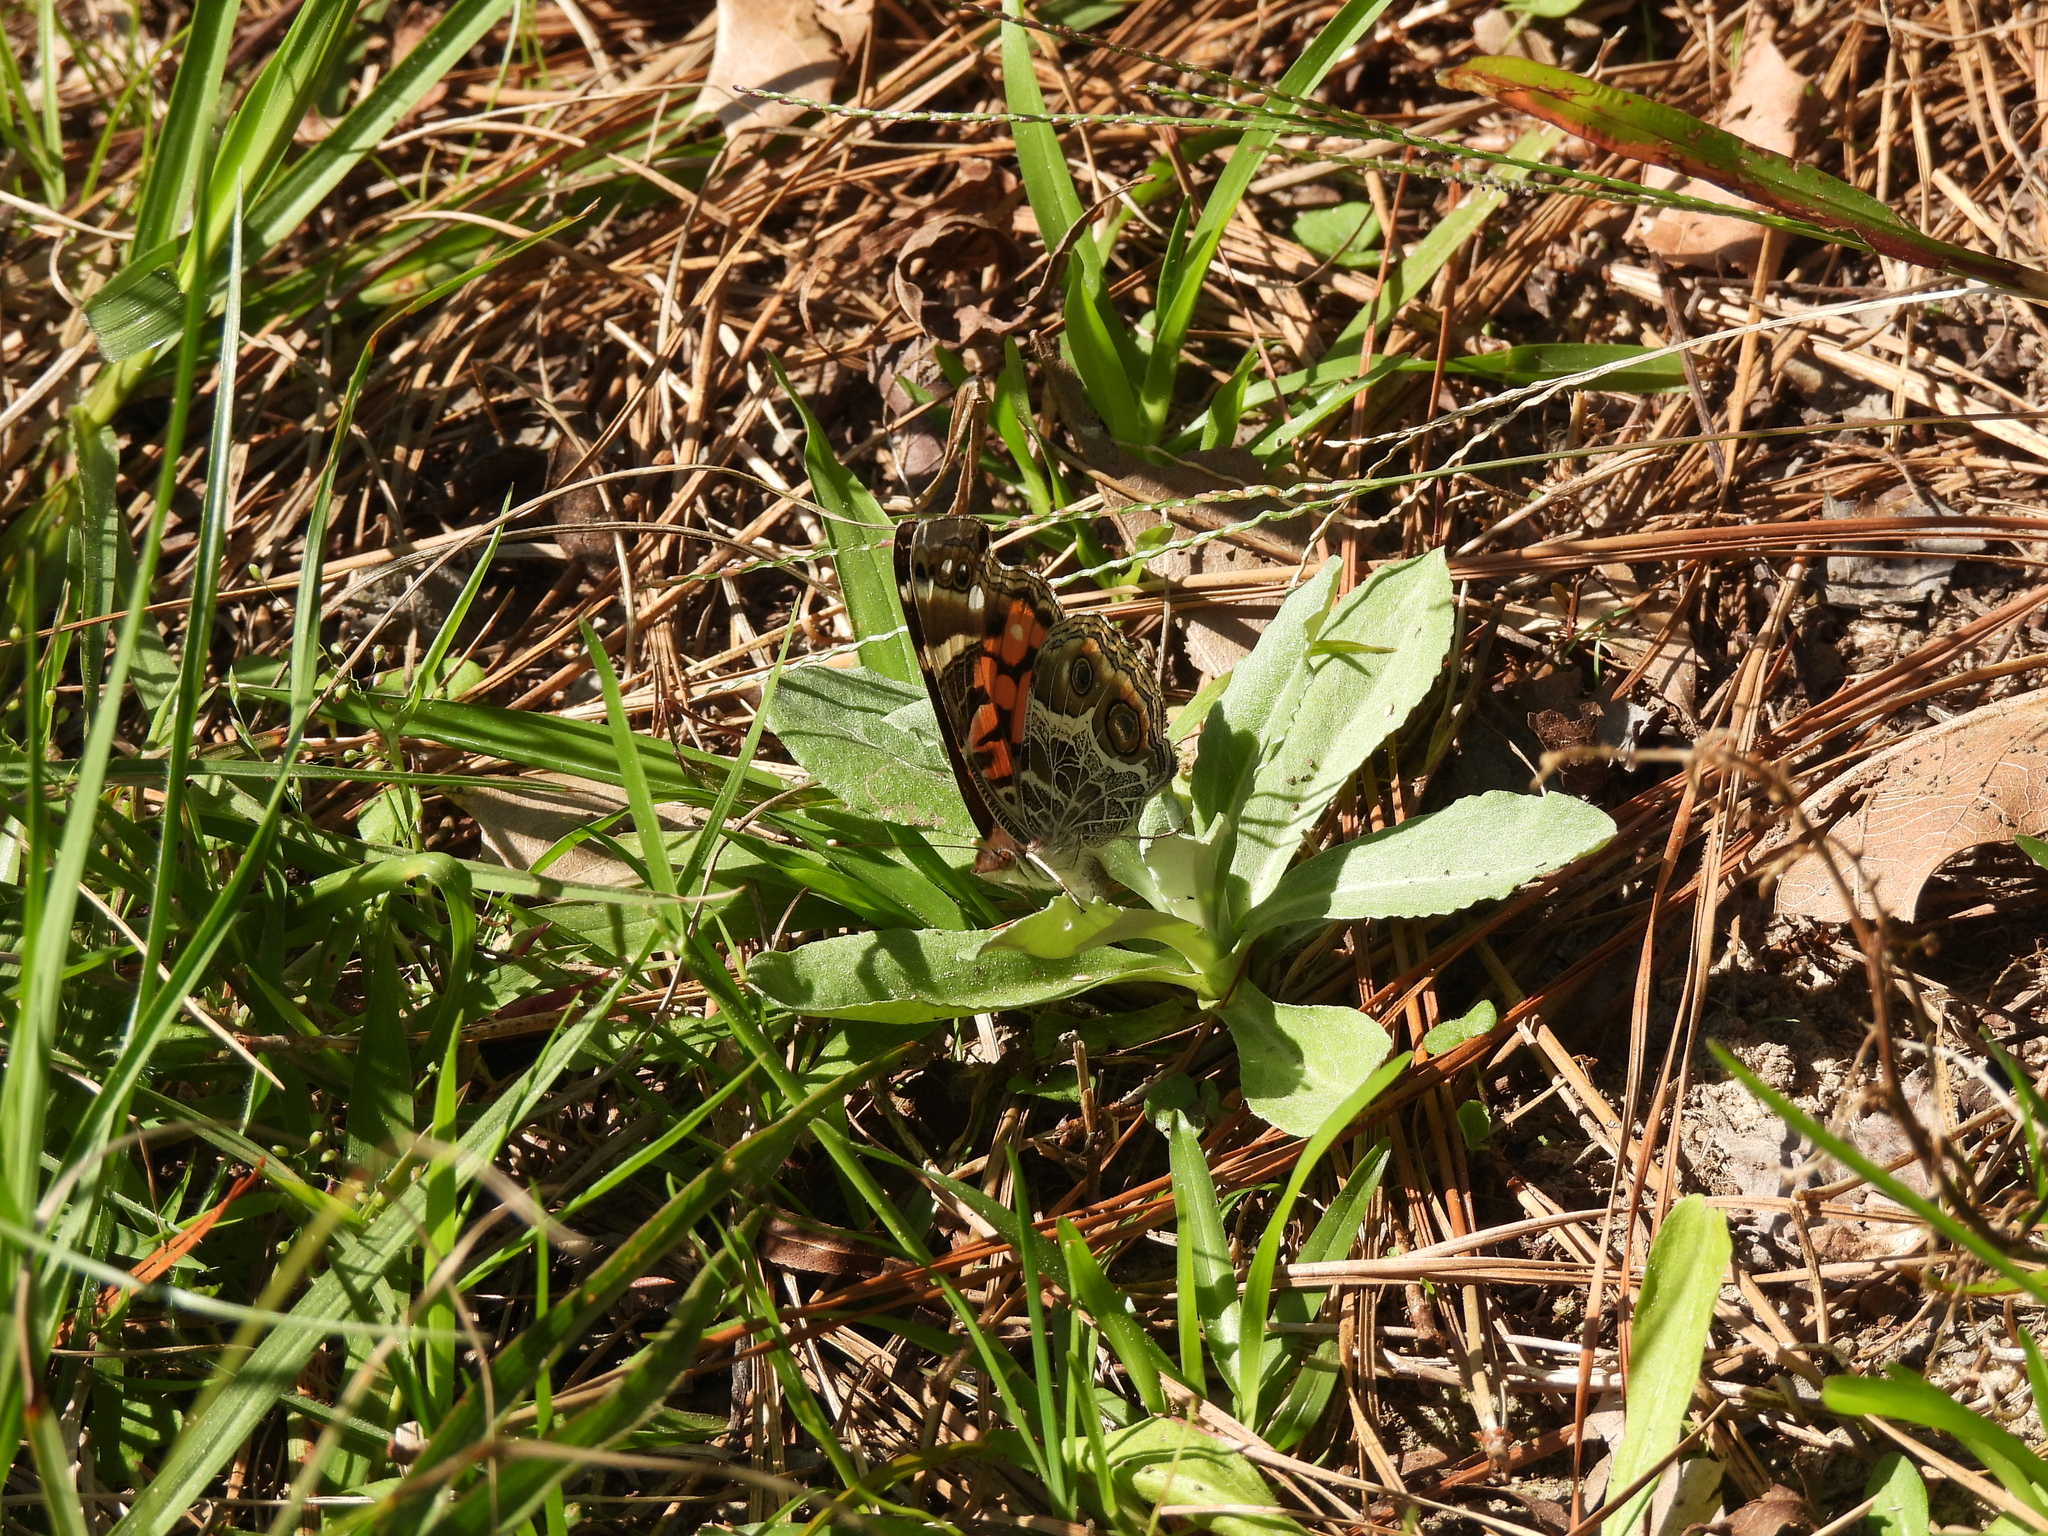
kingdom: Animalia
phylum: Arthropoda
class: Insecta
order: Lepidoptera
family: Nymphalidae
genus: Vanessa
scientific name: Vanessa virginiensis
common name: American lady
